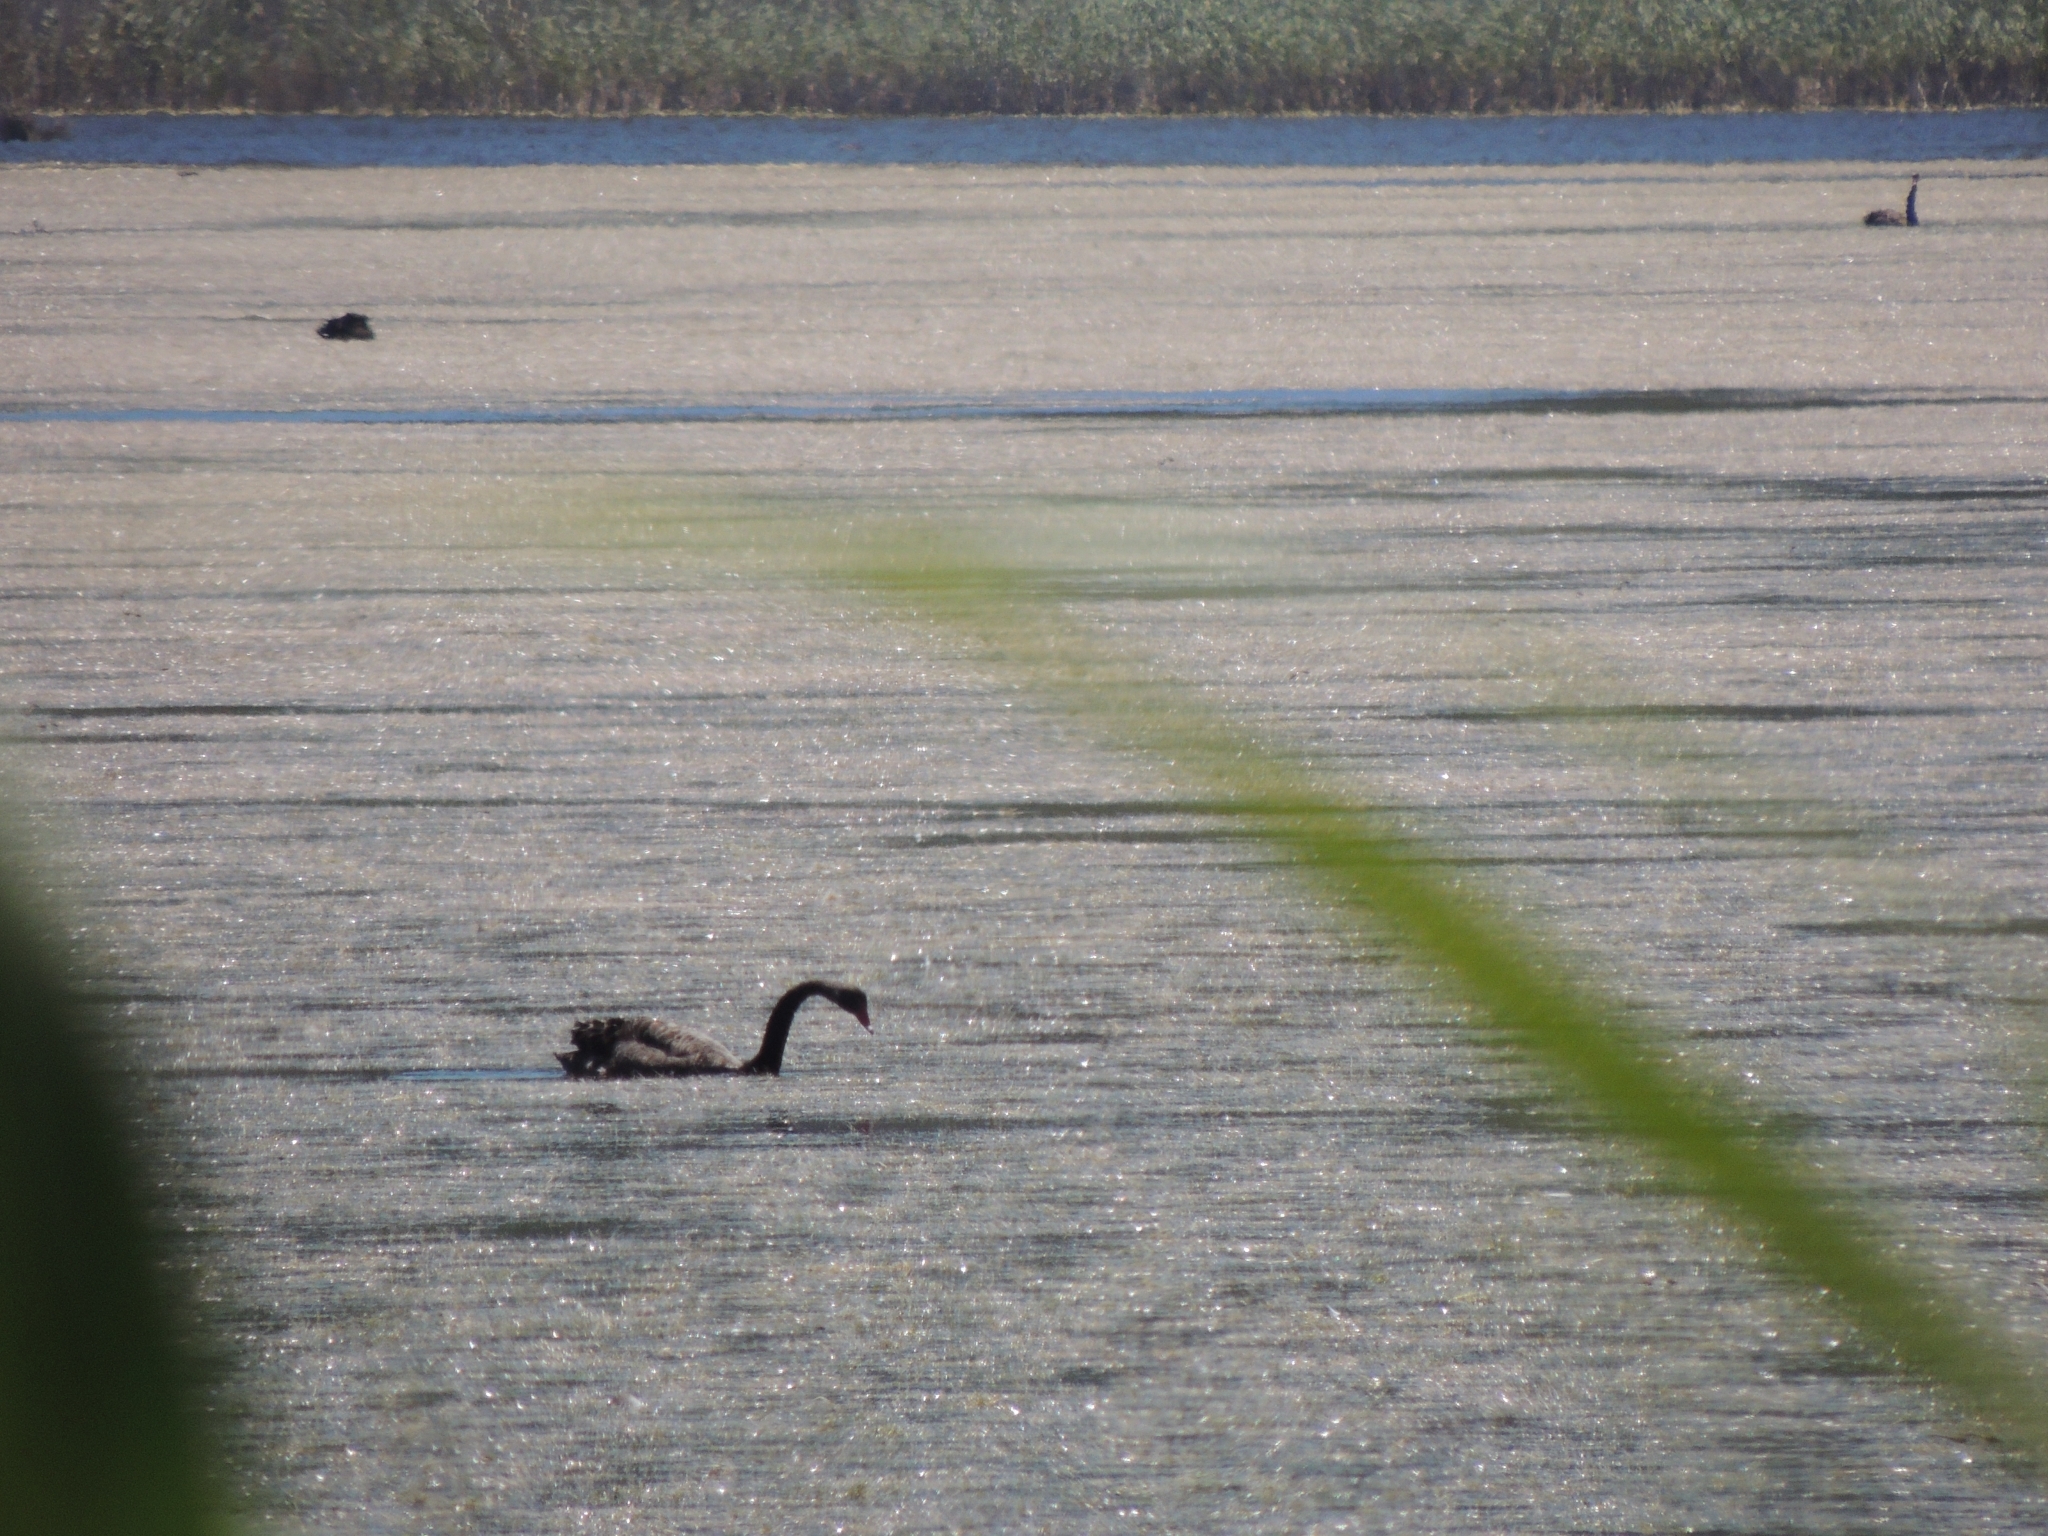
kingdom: Animalia
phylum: Chordata
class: Aves
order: Anseriformes
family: Anatidae
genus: Cygnus
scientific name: Cygnus atratus
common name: Black swan
